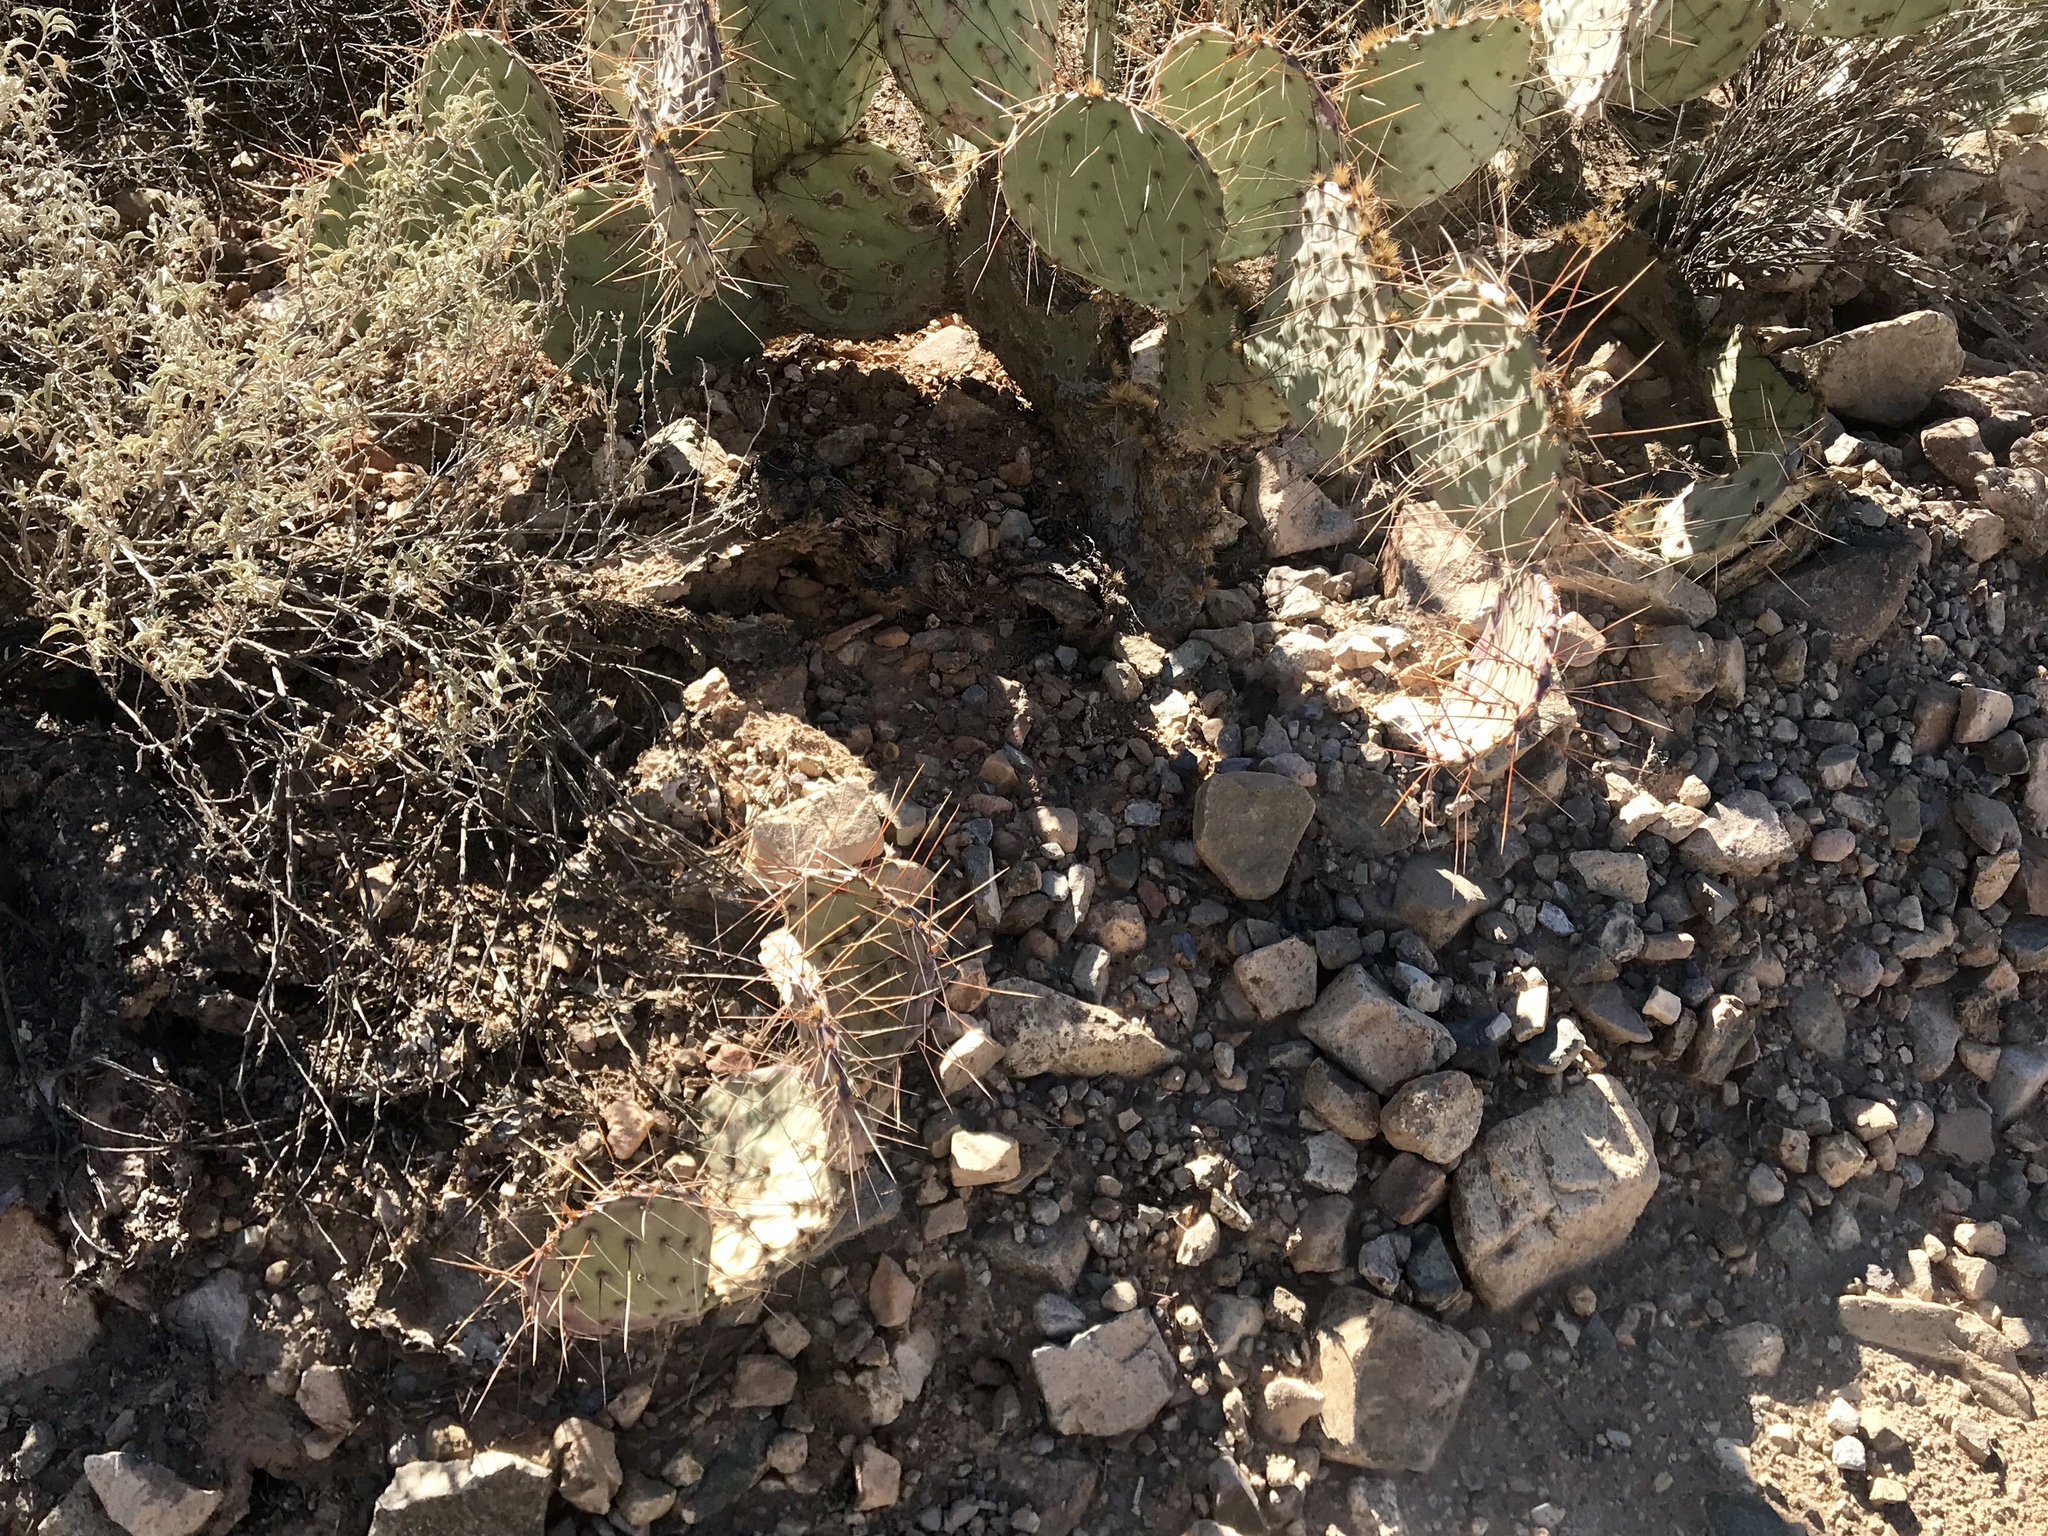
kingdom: Plantae
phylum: Tracheophyta
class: Magnoliopsida
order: Caryophyllales
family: Cactaceae
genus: Opuntia
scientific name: Opuntia phaeacantha
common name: New mexico prickly-pear
